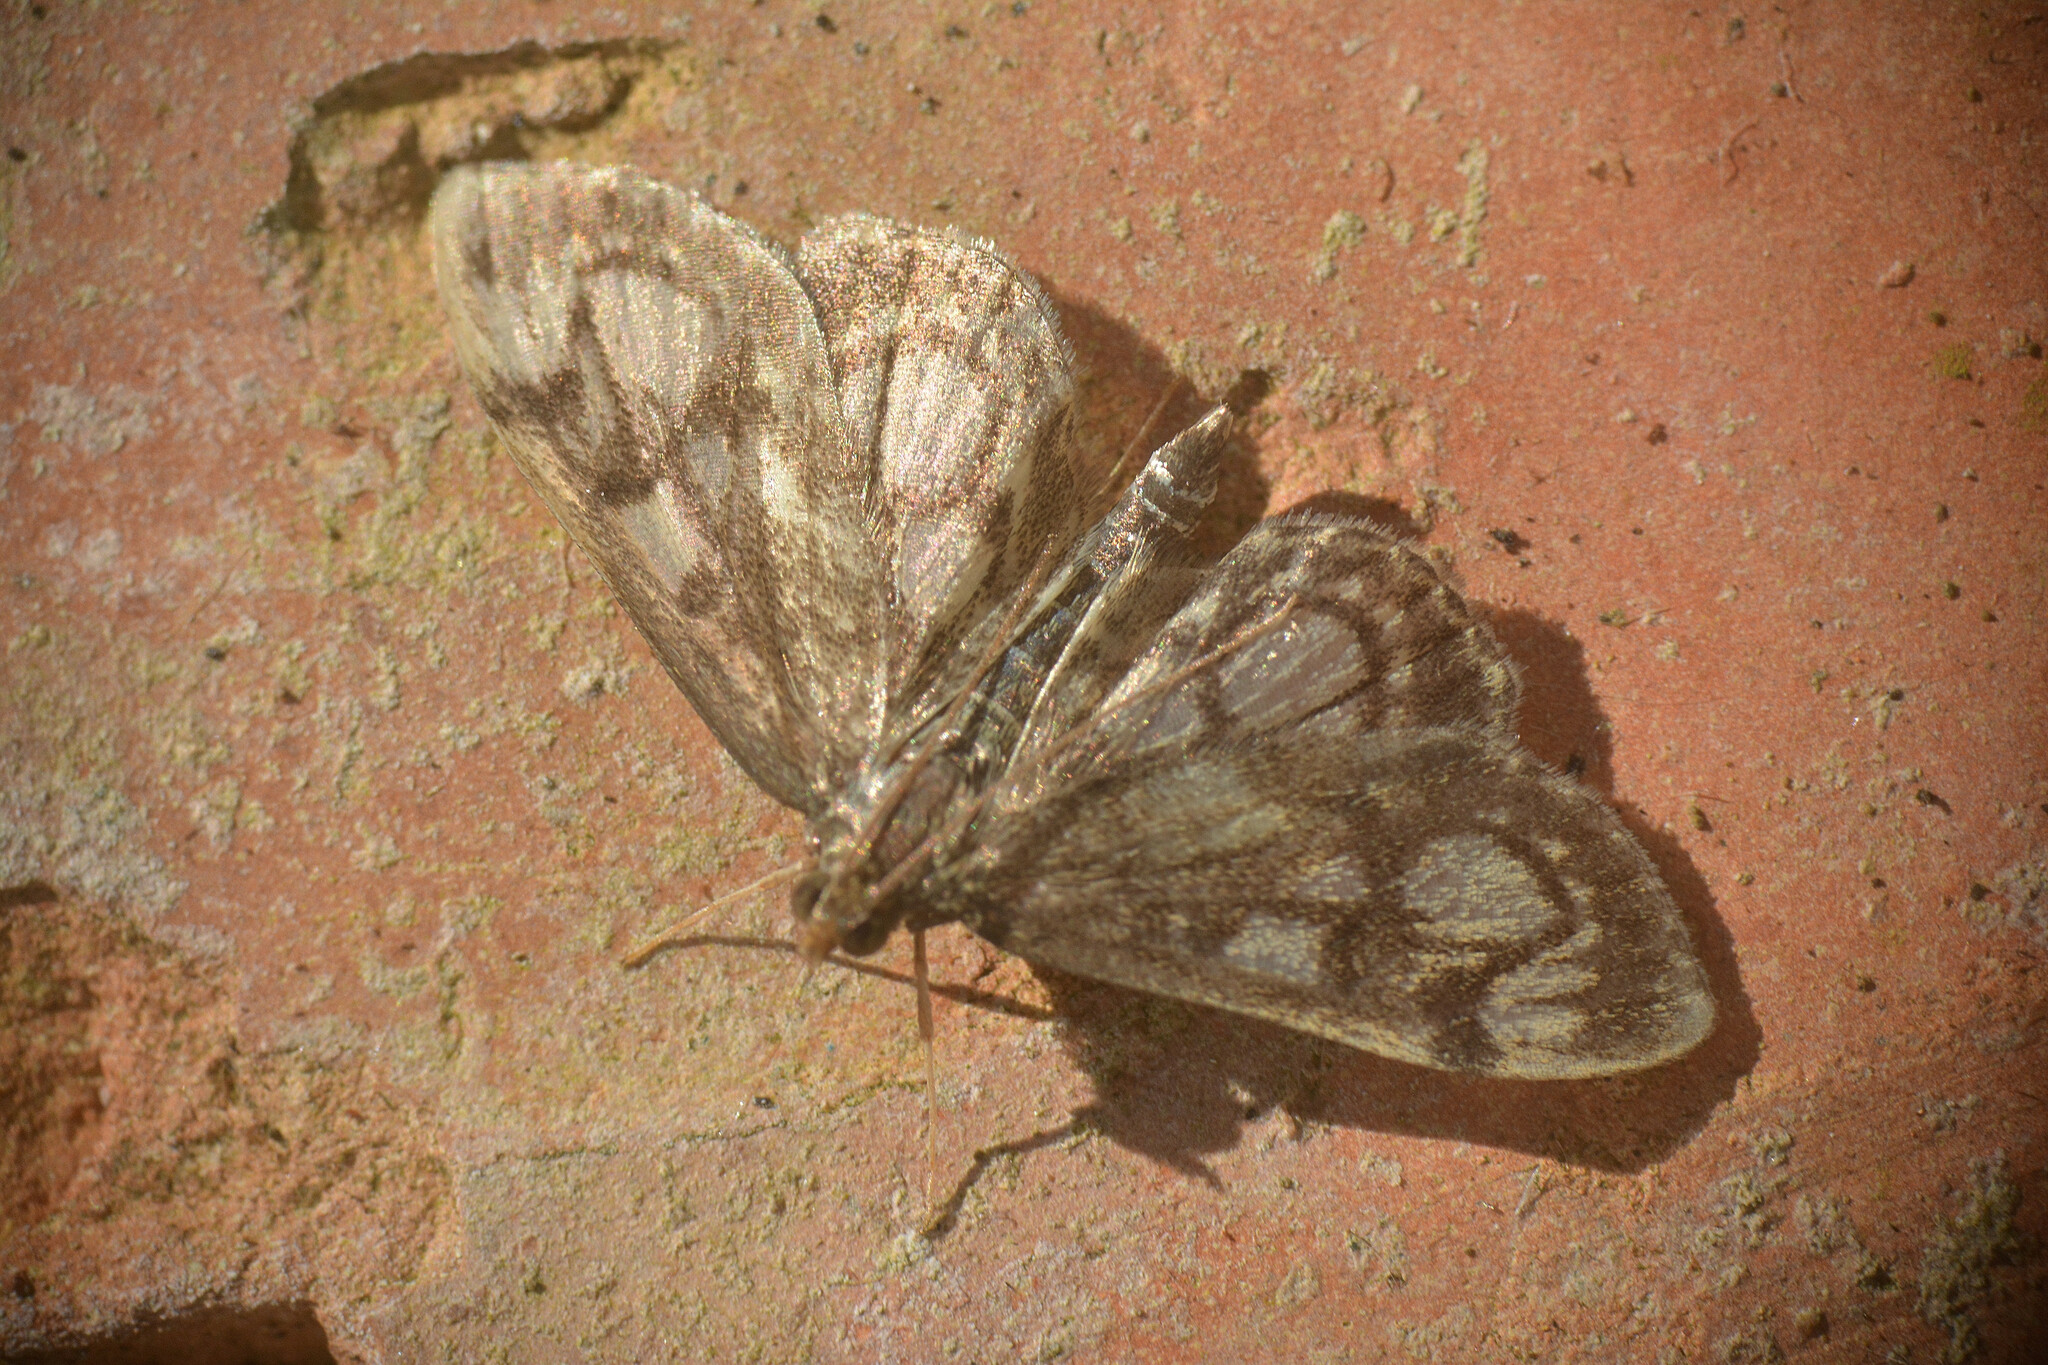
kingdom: Animalia
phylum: Arthropoda
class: Insecta
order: Lepidoptera
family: Crambidae
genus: Anania
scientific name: Anania coronata
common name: Elder pearl
